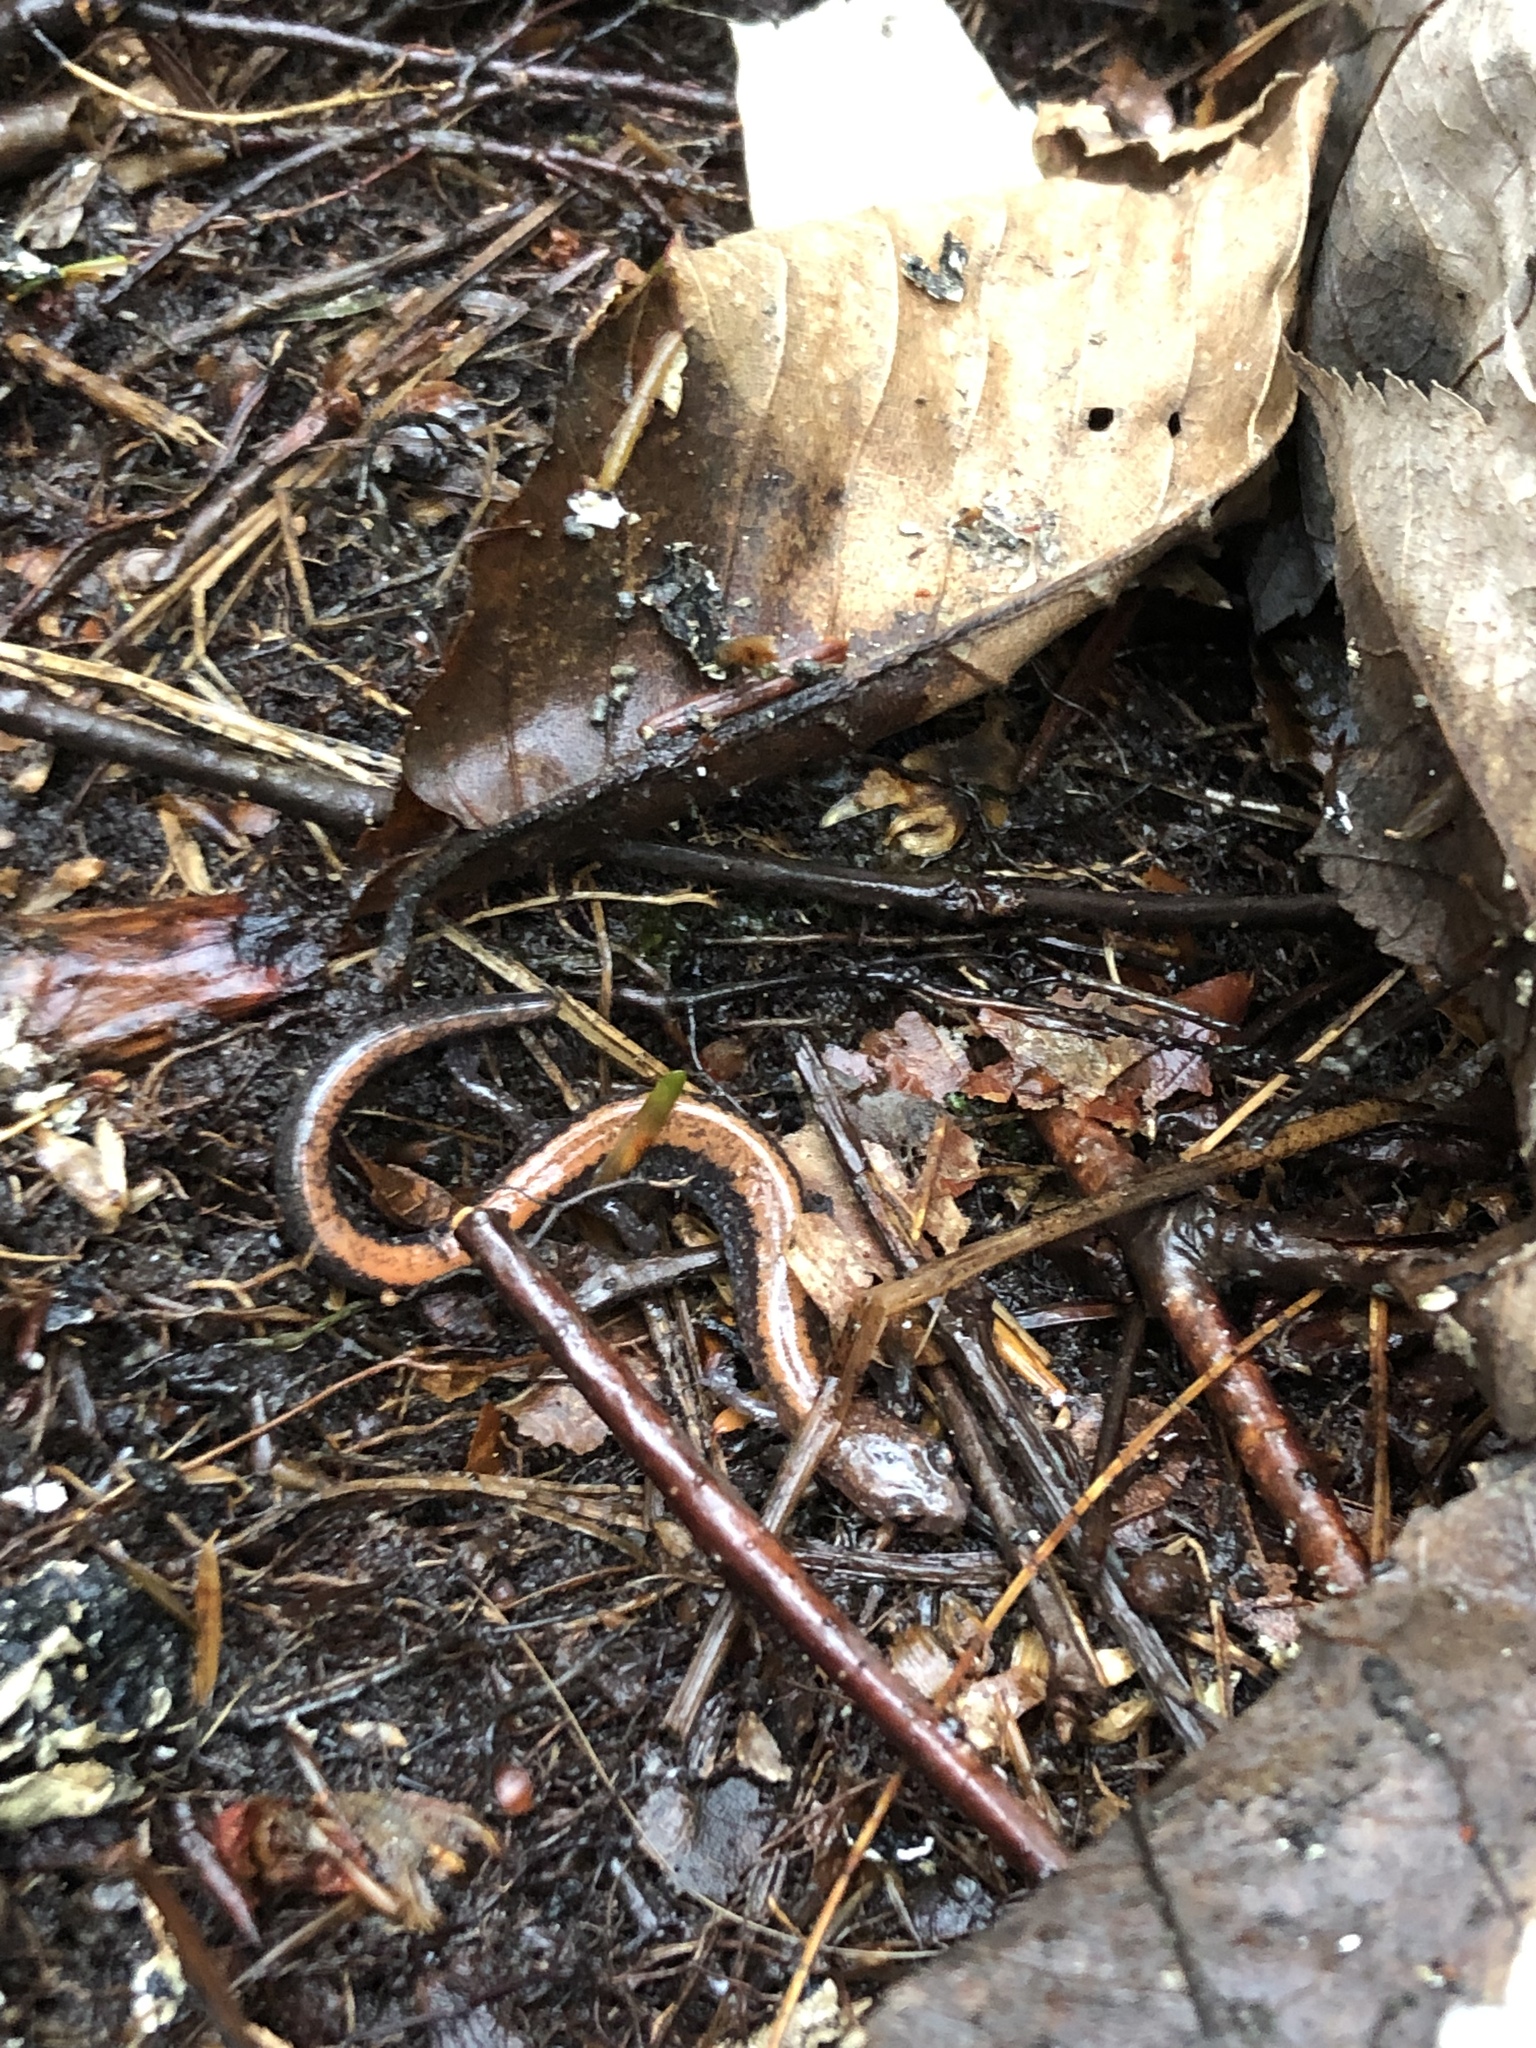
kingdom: Animalia
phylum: Chordata
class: Amphibia
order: Caudata
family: Plethodontidae
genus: Plethodon
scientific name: Plethodon cinereus
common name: Redback salamander
